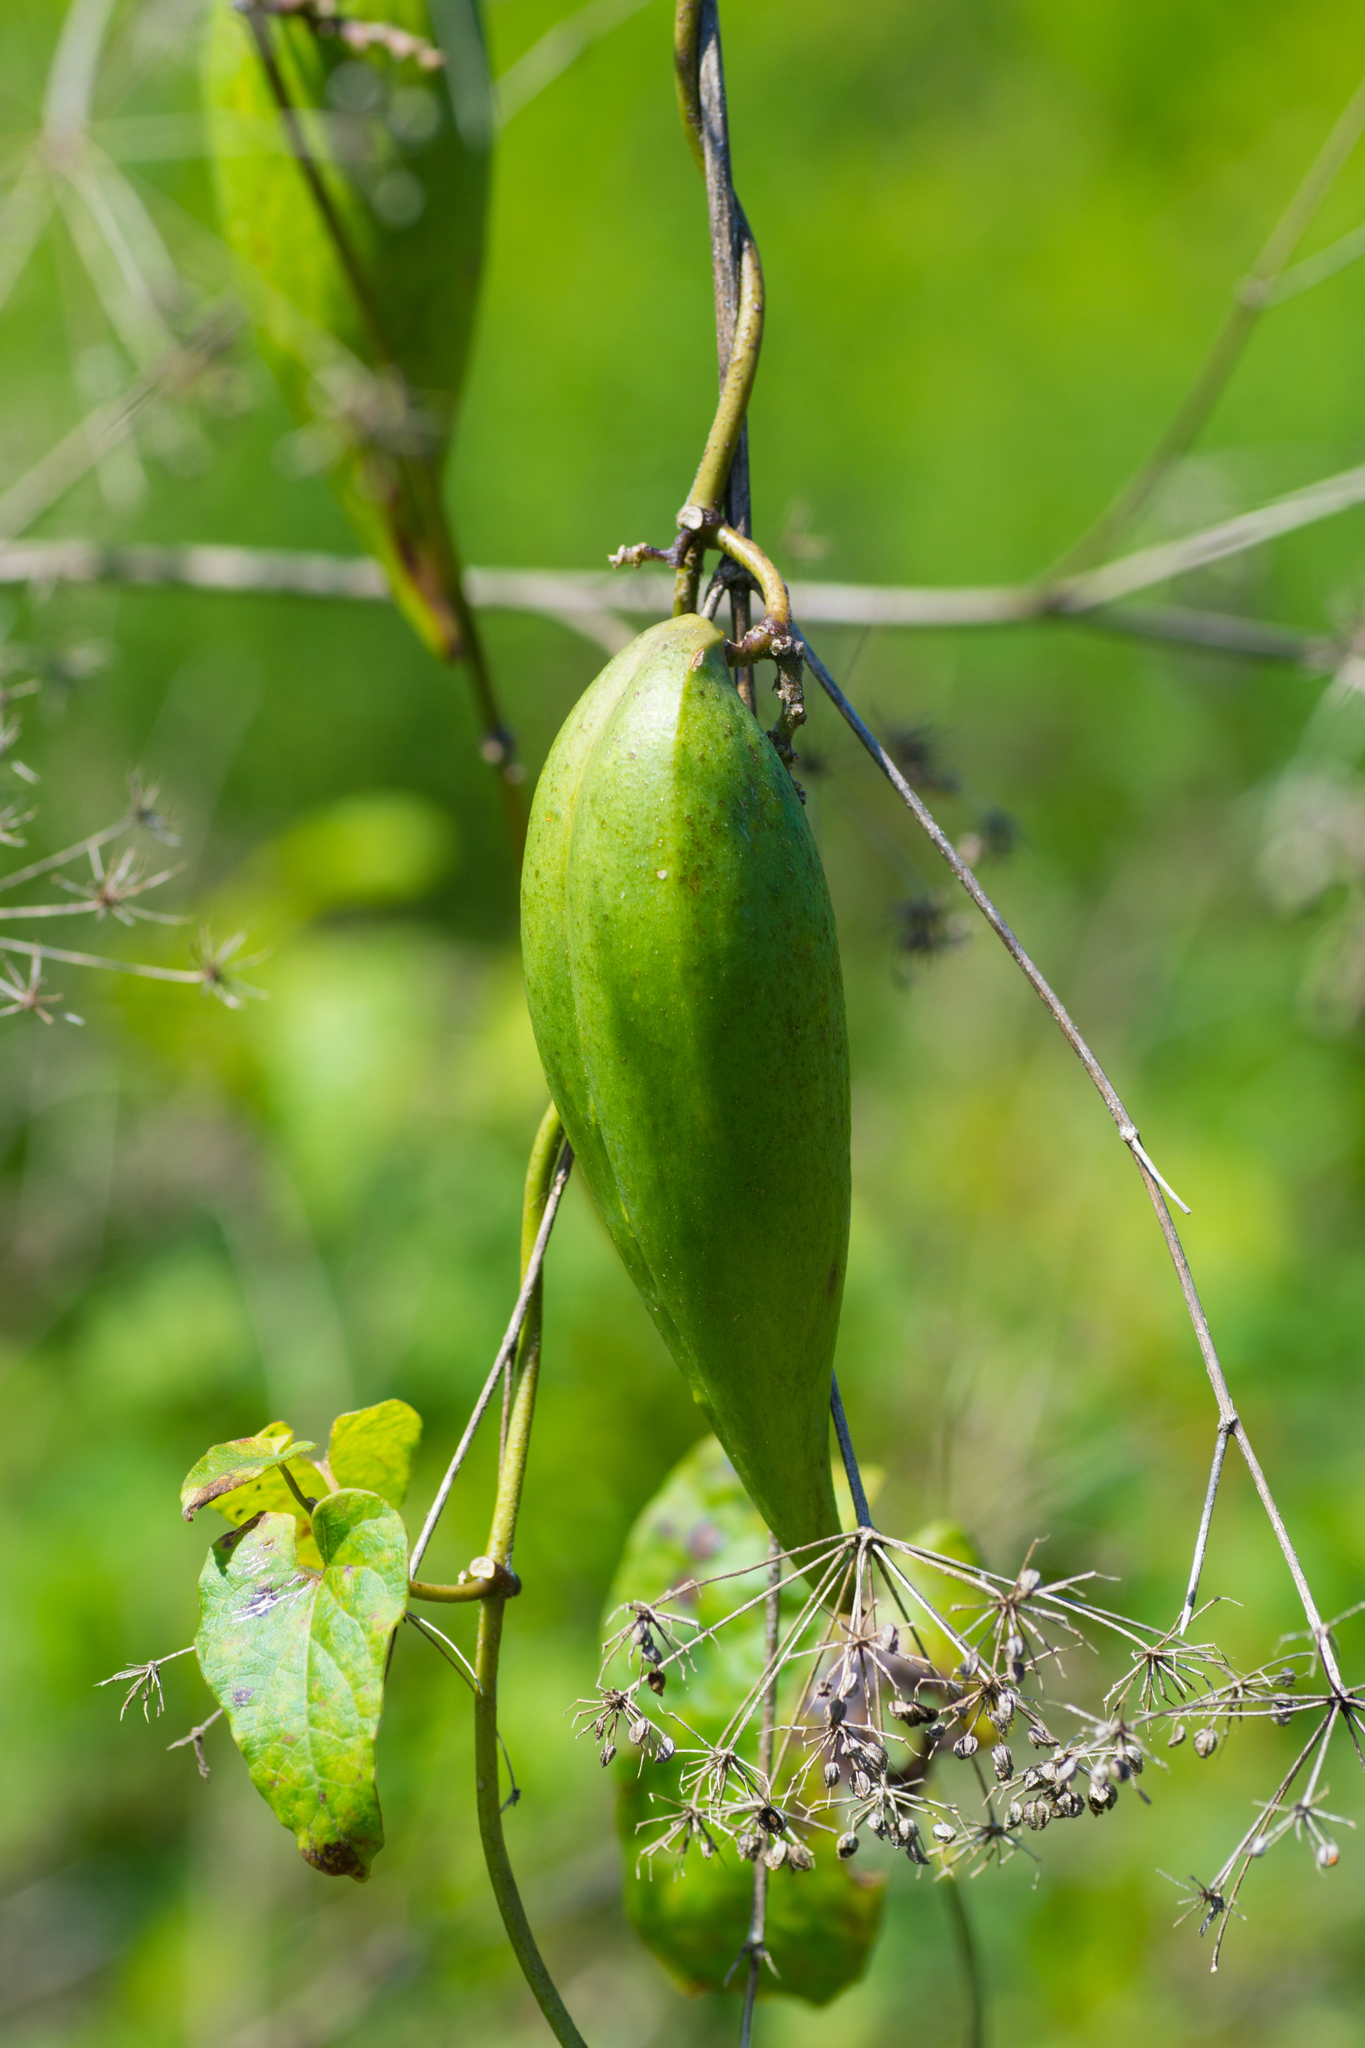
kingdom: Plantae
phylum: Tracheophyta
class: Magnoliopsida
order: Gentianales
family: Apocynaceae
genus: Cynanchum
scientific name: Cynanchum laeve
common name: Sandvine
